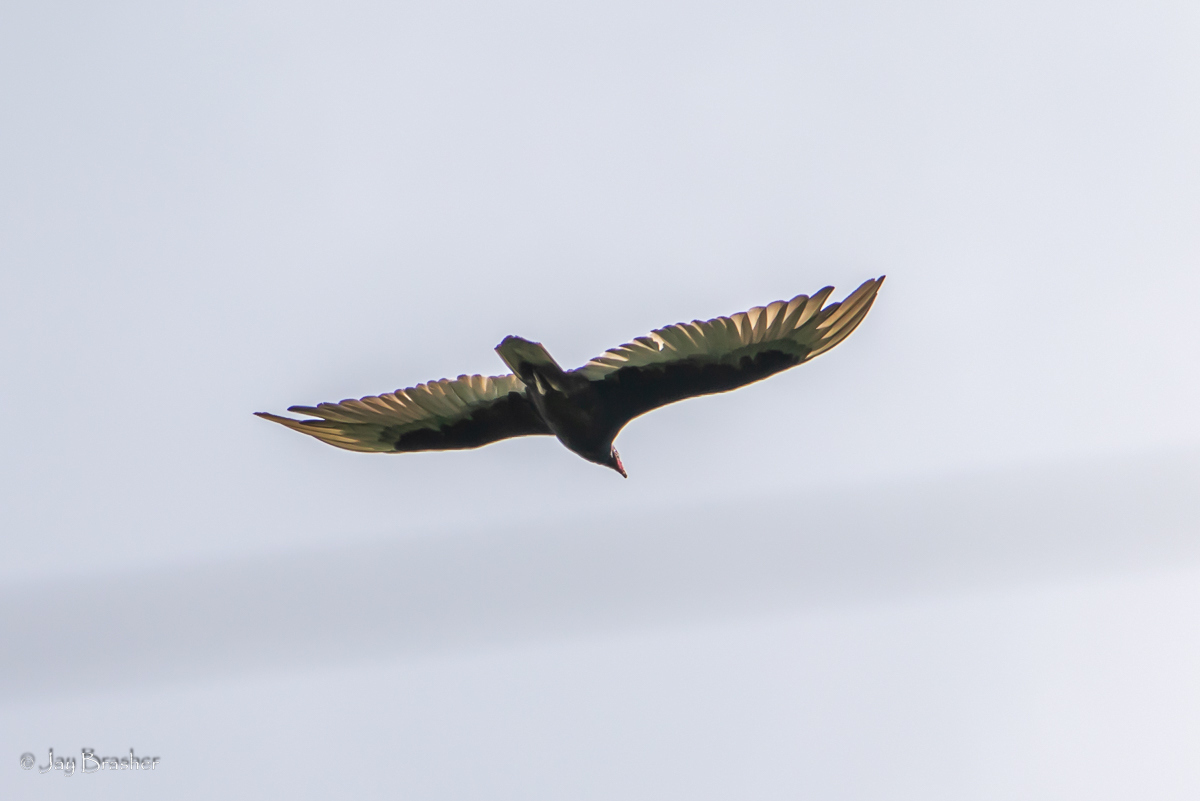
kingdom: Animalia
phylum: Chordata
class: Aves
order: Accipitriformes
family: Cathartidae
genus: Cathartes
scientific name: Cathartes aura
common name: Turkey vulture
